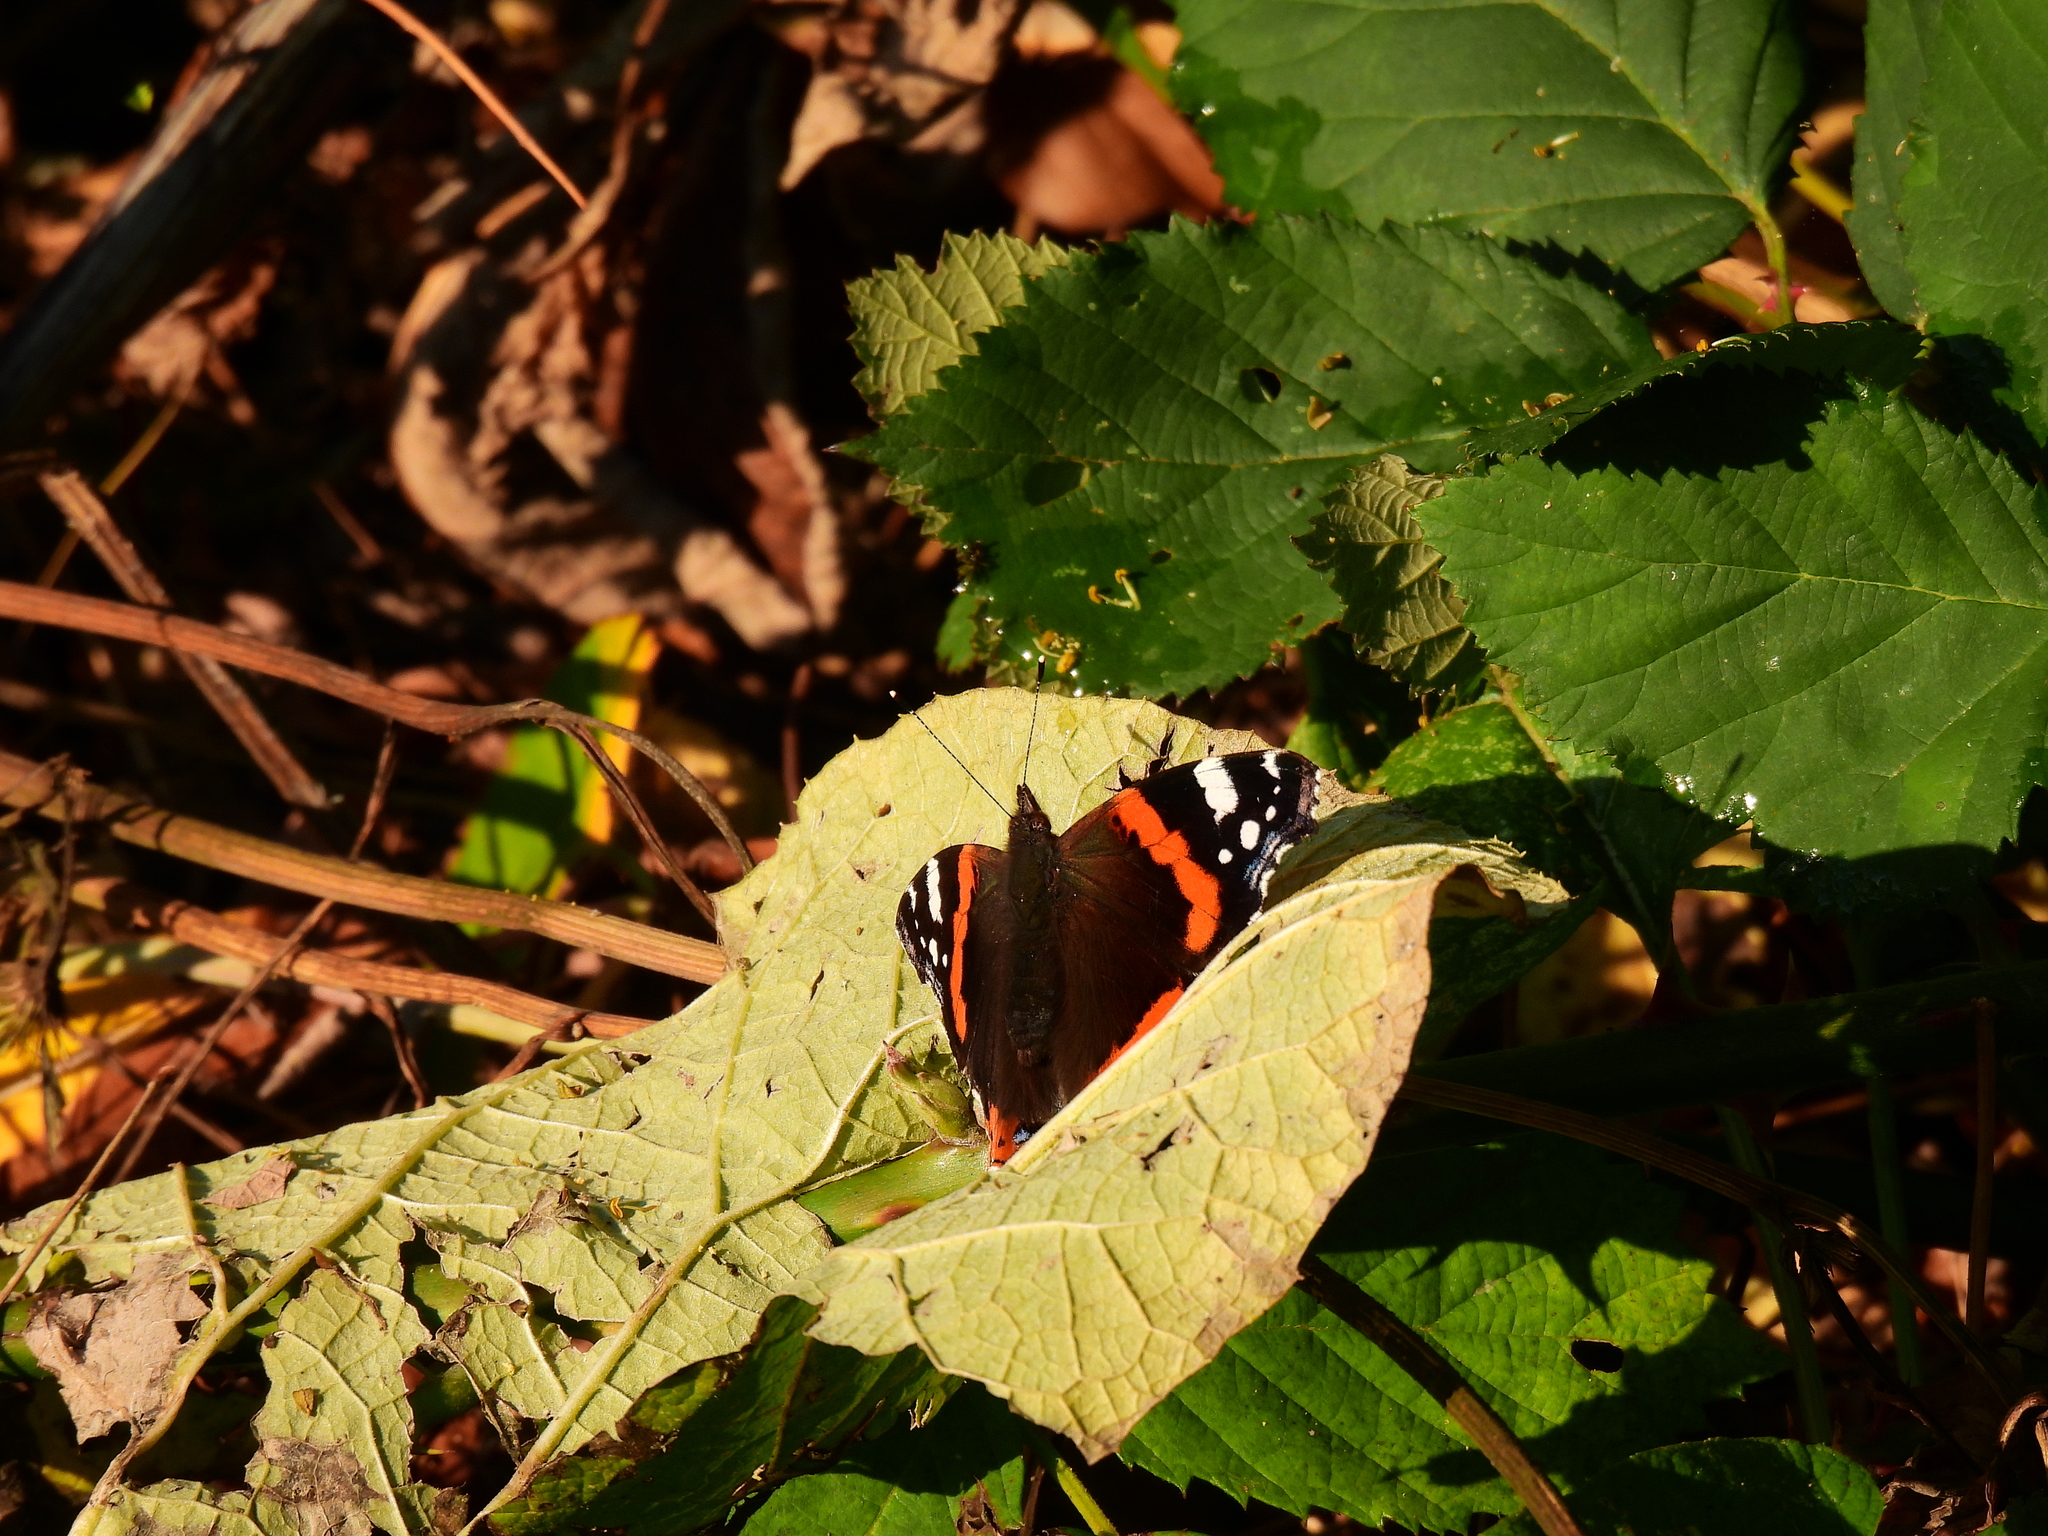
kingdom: Animalia
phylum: Arthropoda
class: Insecta
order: Lepidoptera
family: Nymphalidae
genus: Vanessa
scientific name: Vanessa atalanta
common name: Red admiral
